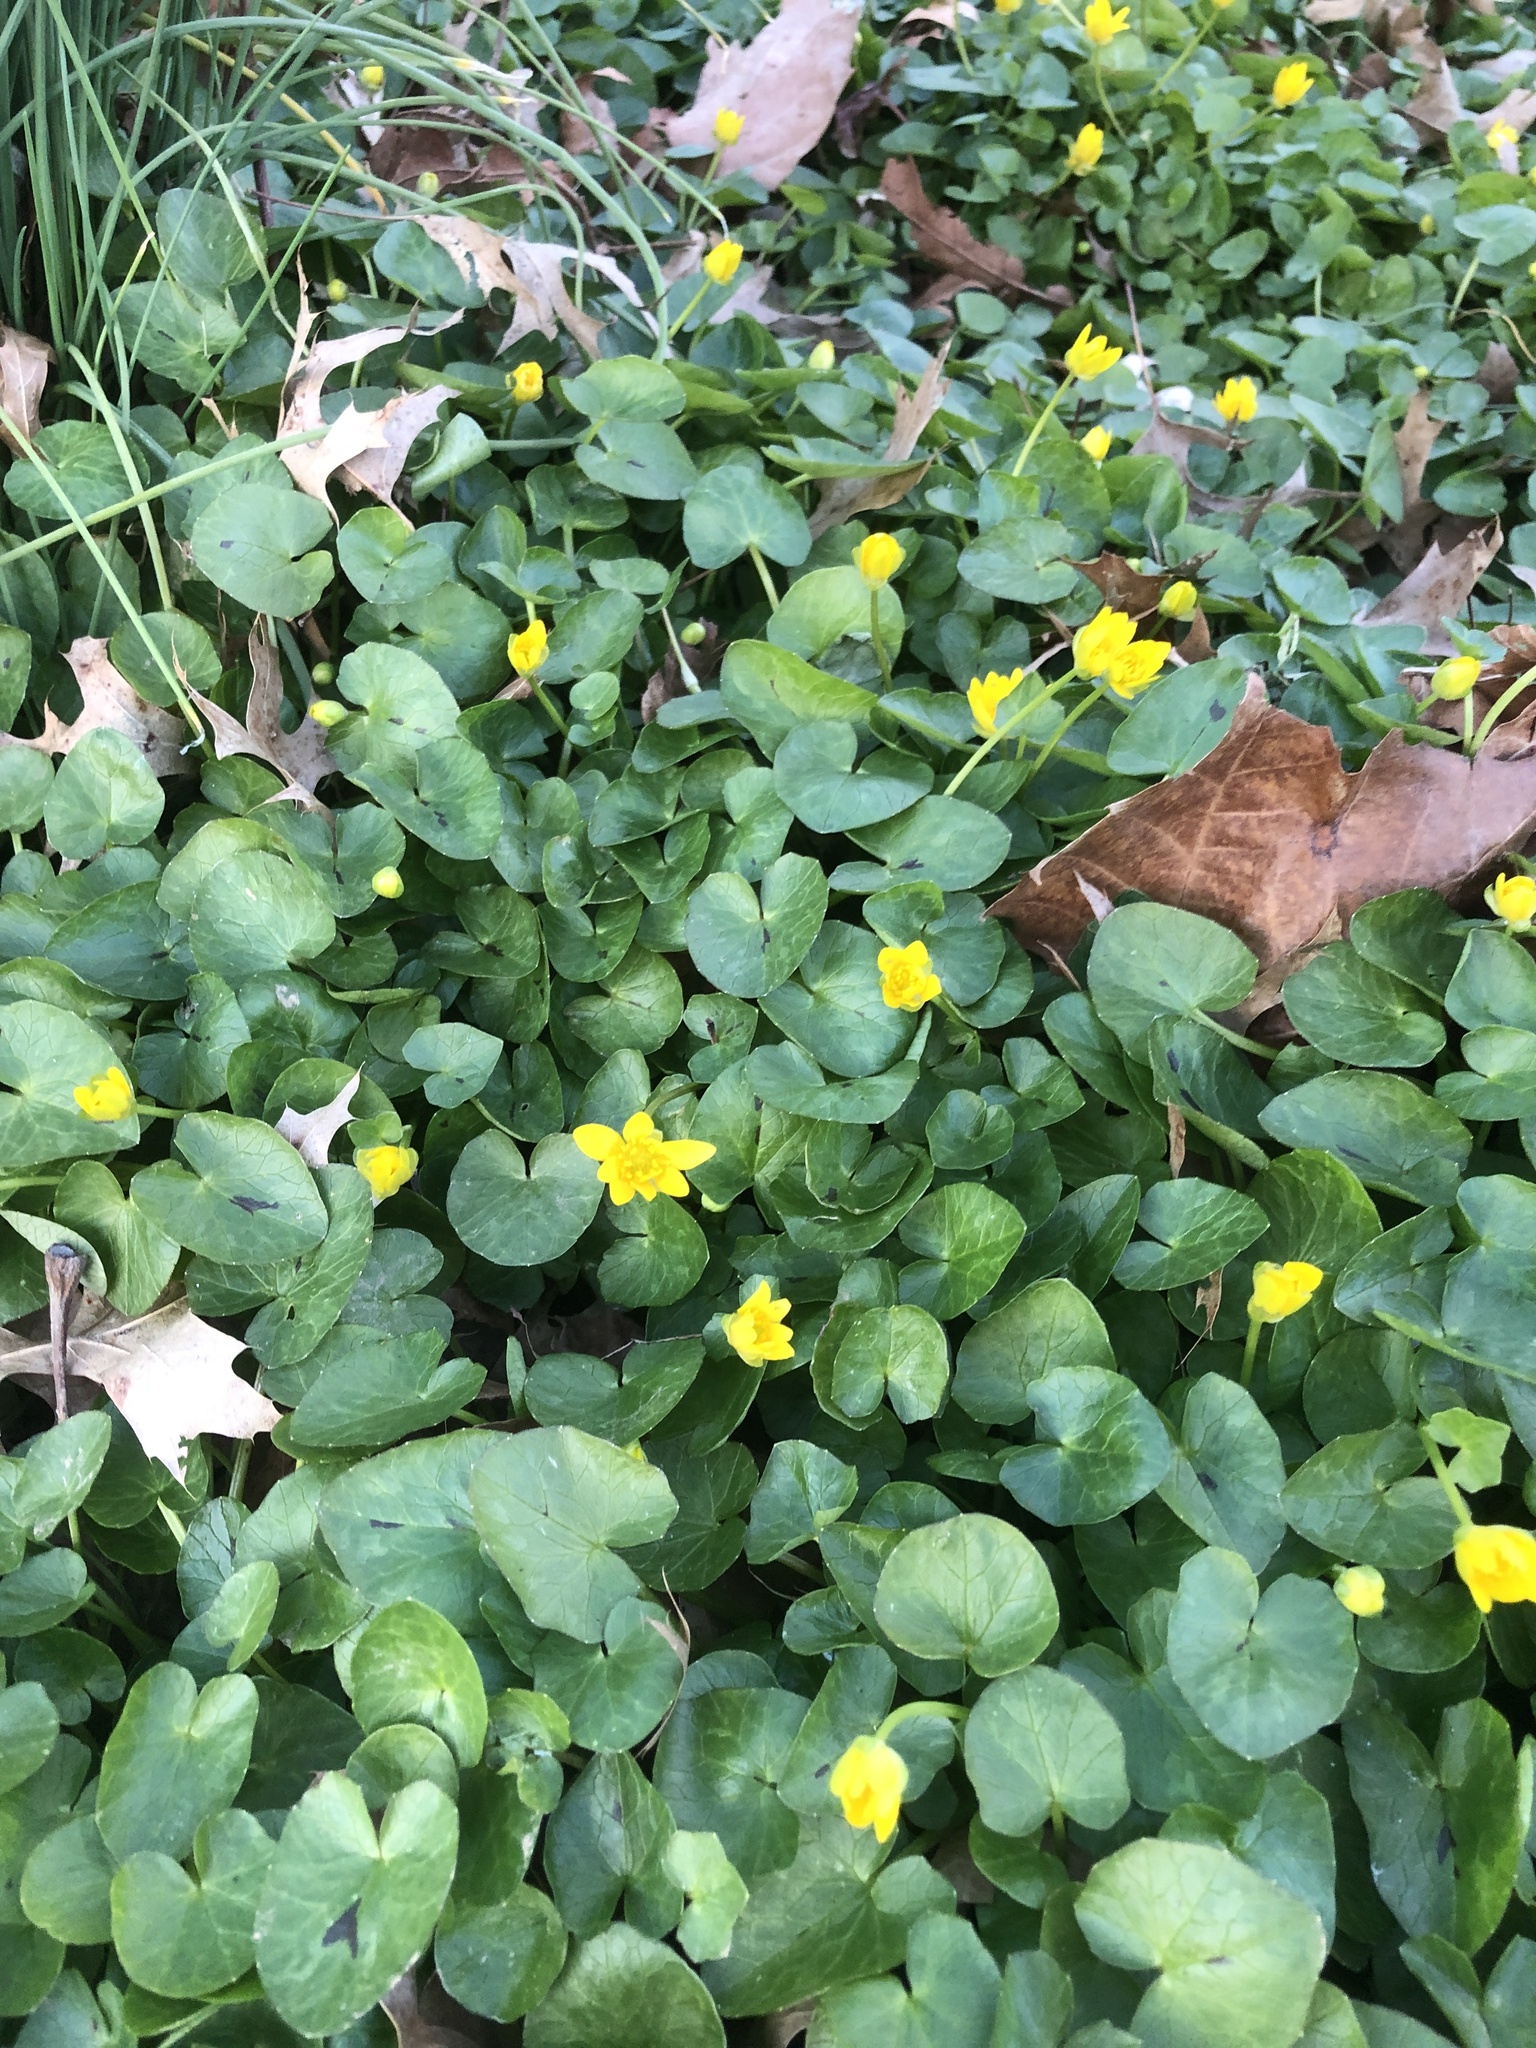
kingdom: Plantae
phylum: Tracheophyta
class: Magnoliopsida
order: Ranunculales
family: Ranunculaceae
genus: Ficaria
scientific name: Ficaria verna
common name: Lesser celandine
